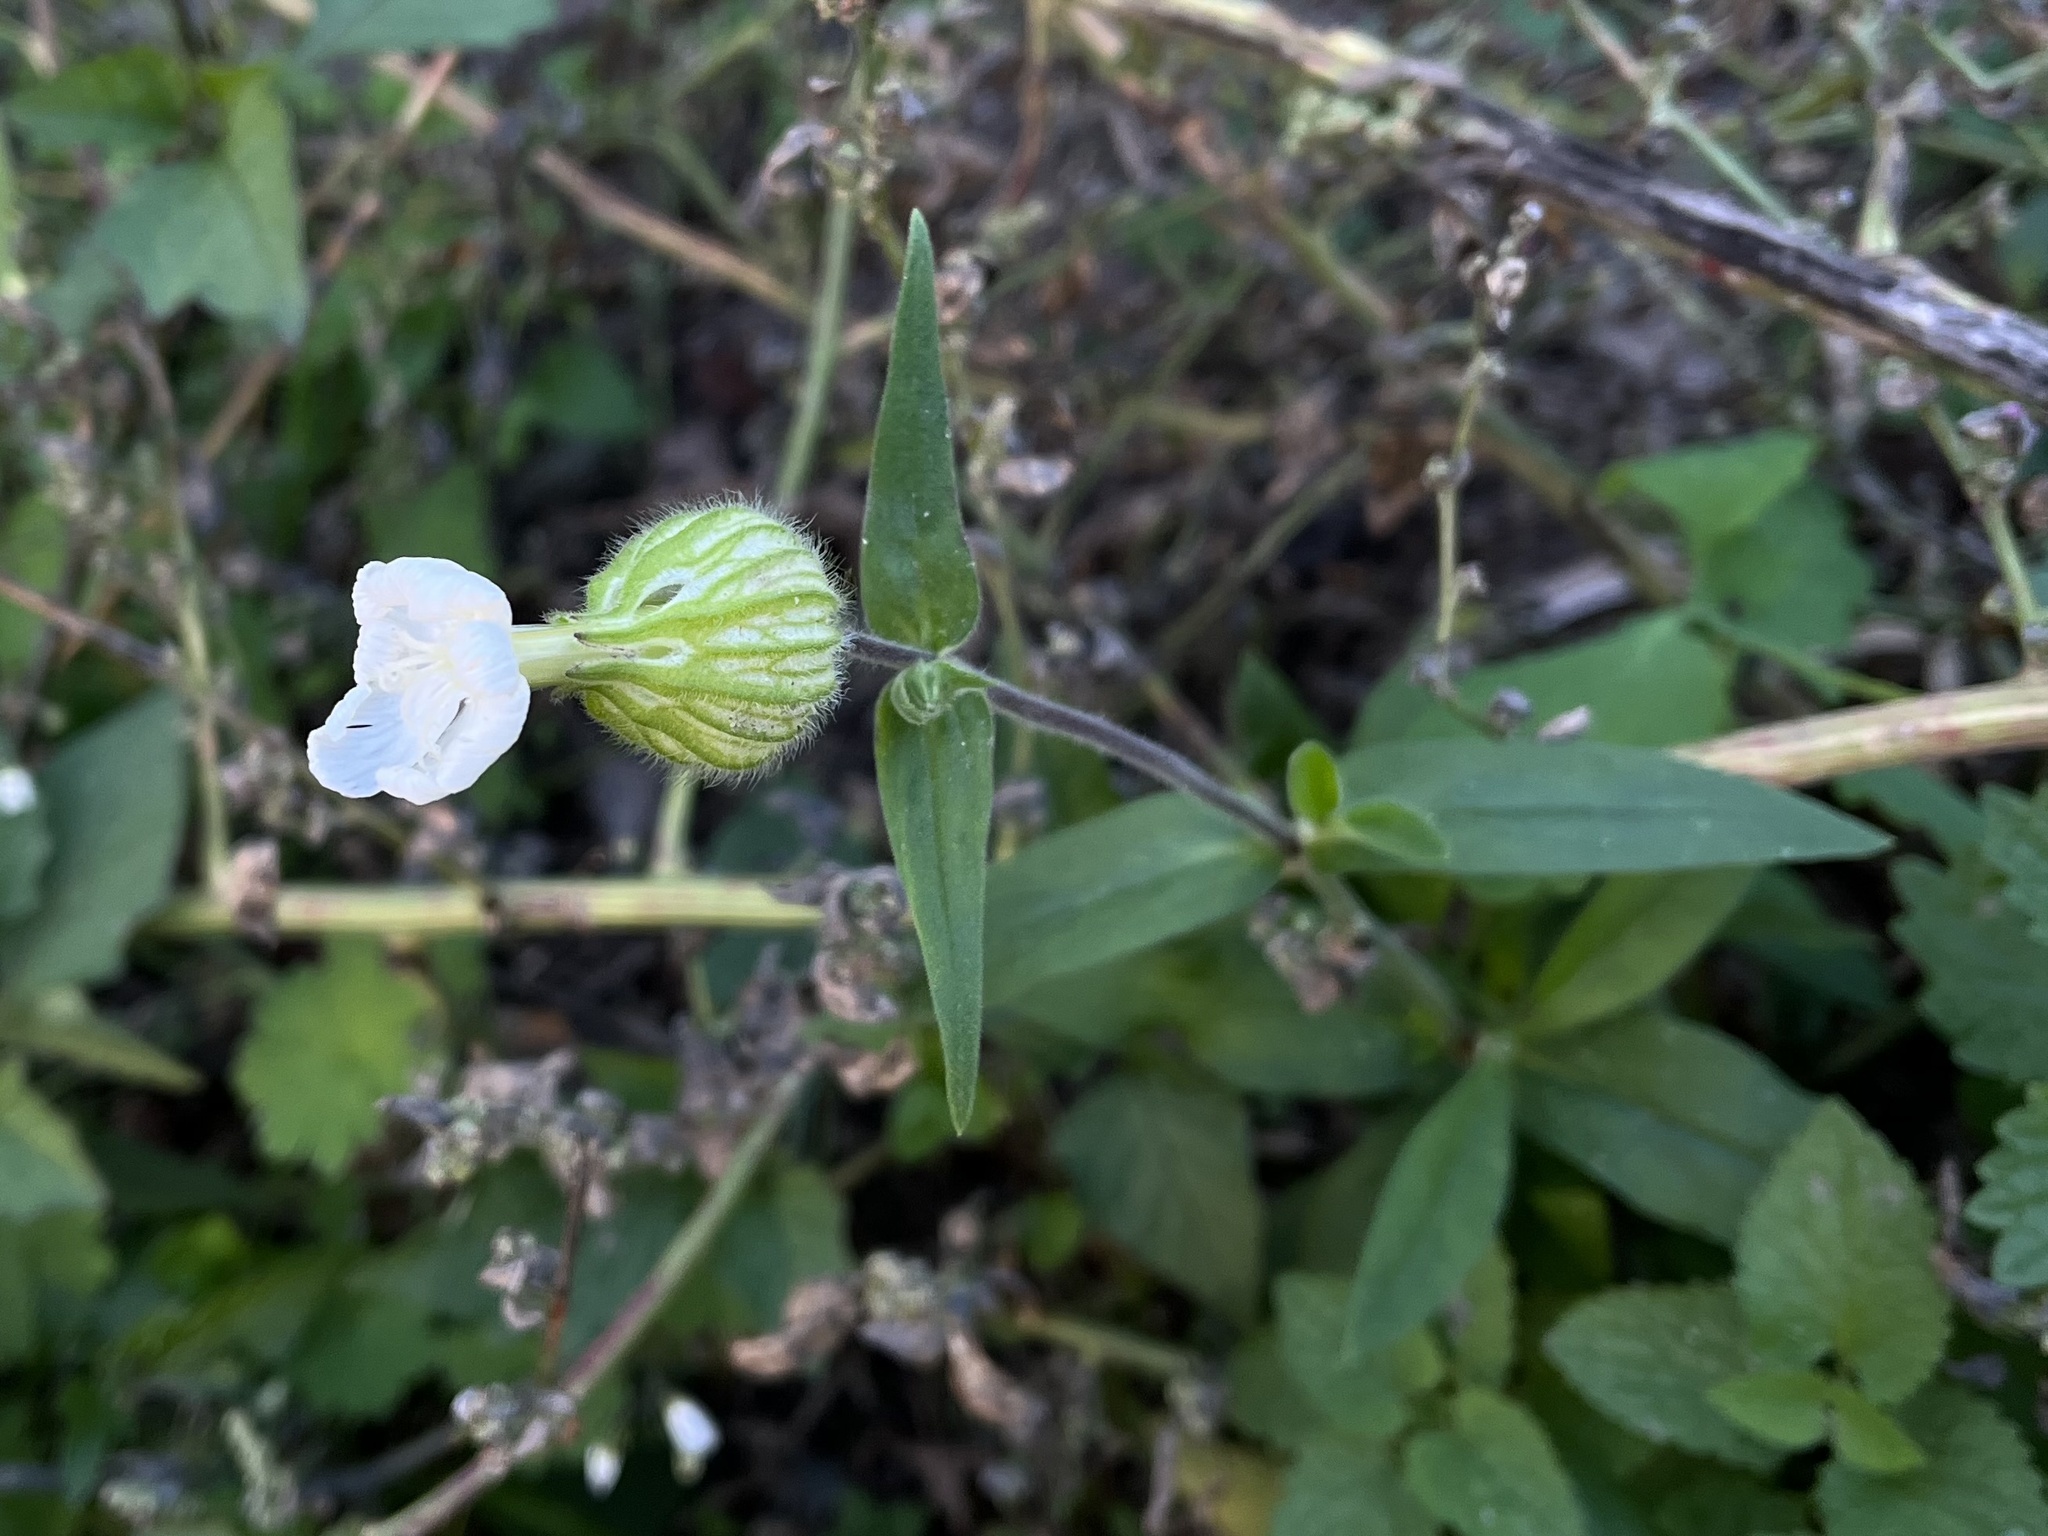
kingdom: Plantae
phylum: Tracheophyta
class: Magnoliopsida
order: Caryophyllales
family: Caryophyllaceae
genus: Silene
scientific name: Silene latifolia
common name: White campion
